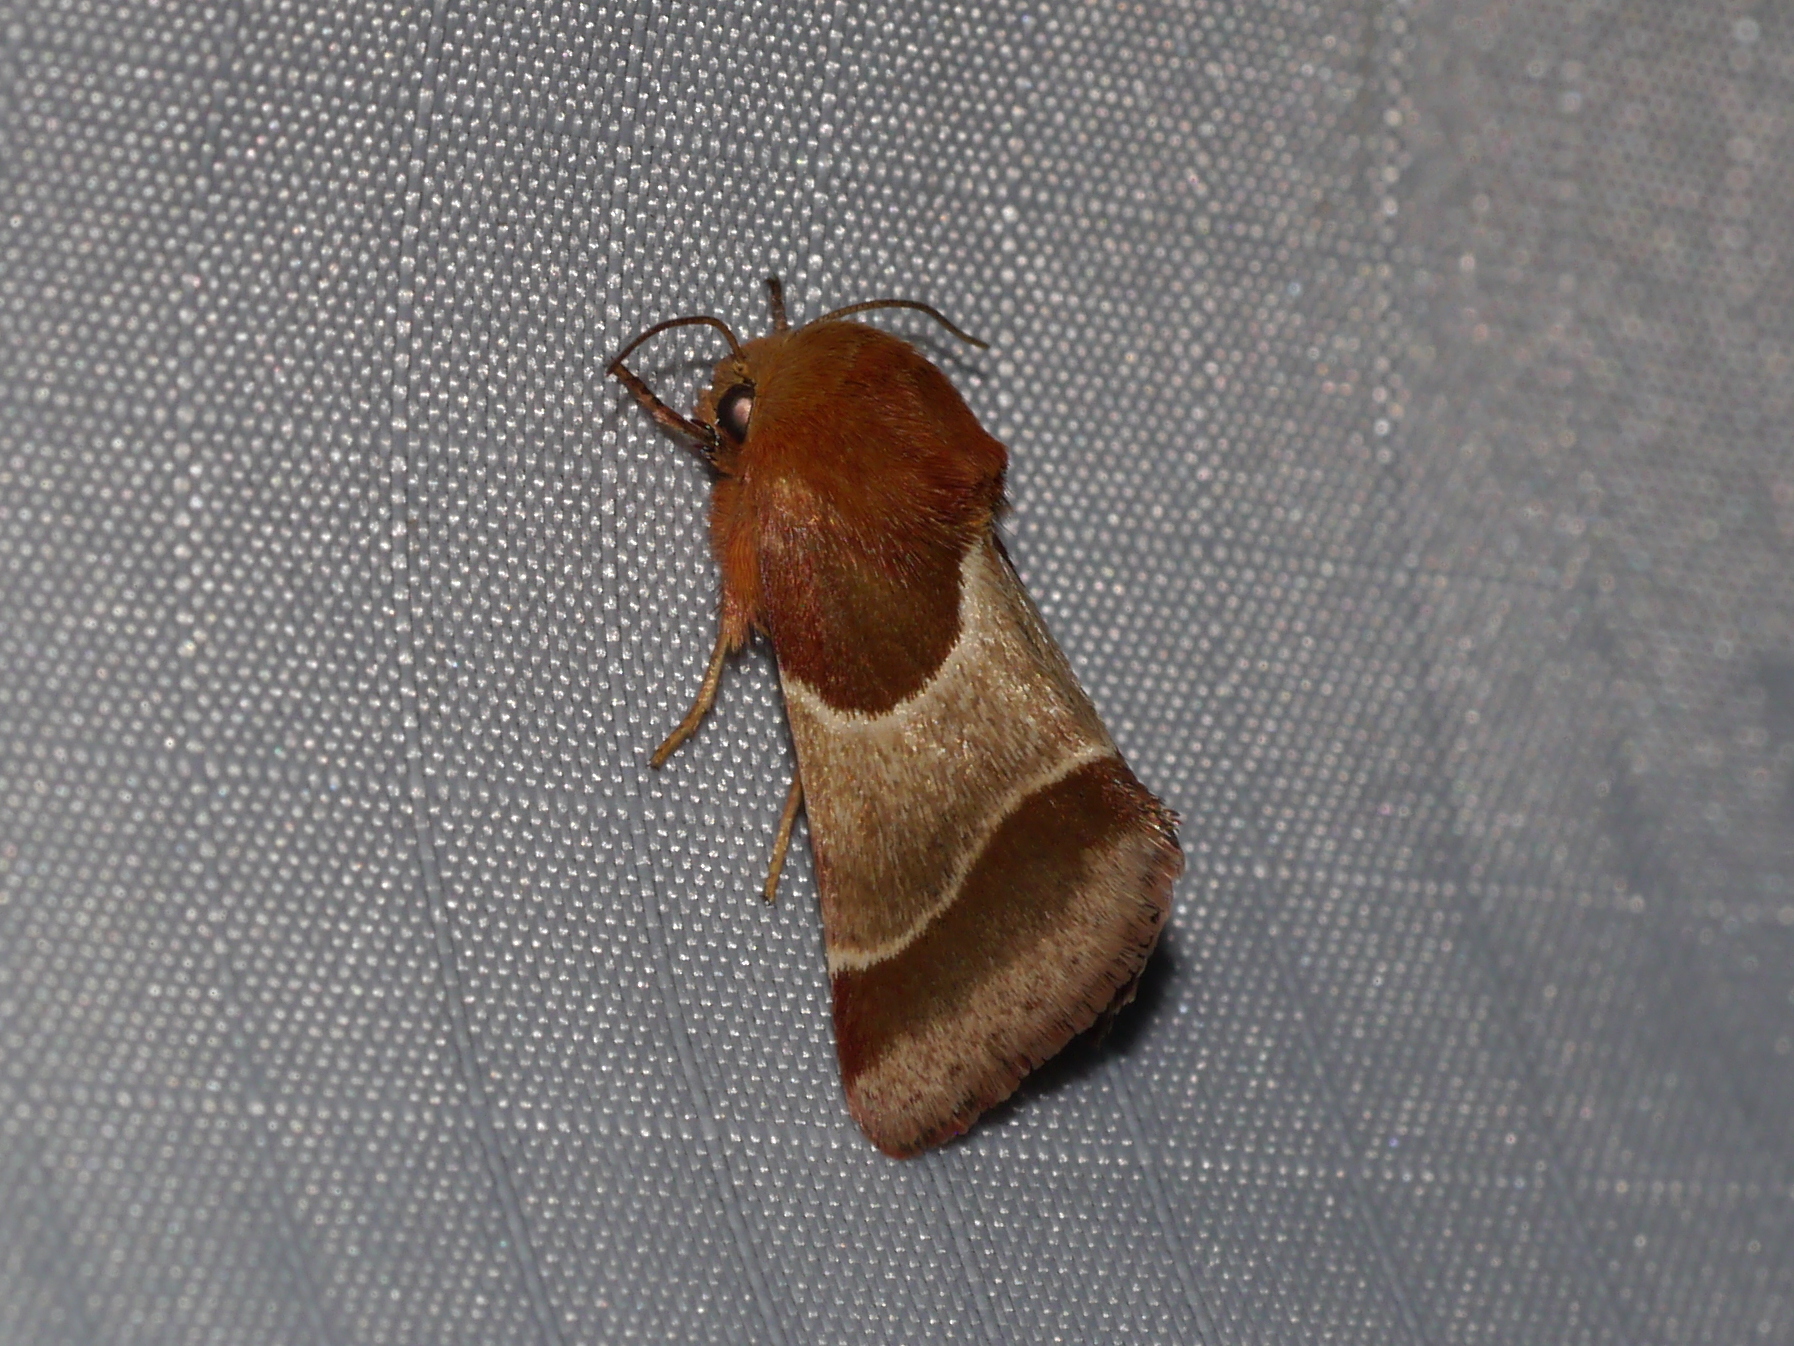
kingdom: Animalia
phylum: Arthropoda
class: Insecta
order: Lepidoptera
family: Noctuidae
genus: Schinia
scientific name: Schinia arcigera
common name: Arcigera flower moth
